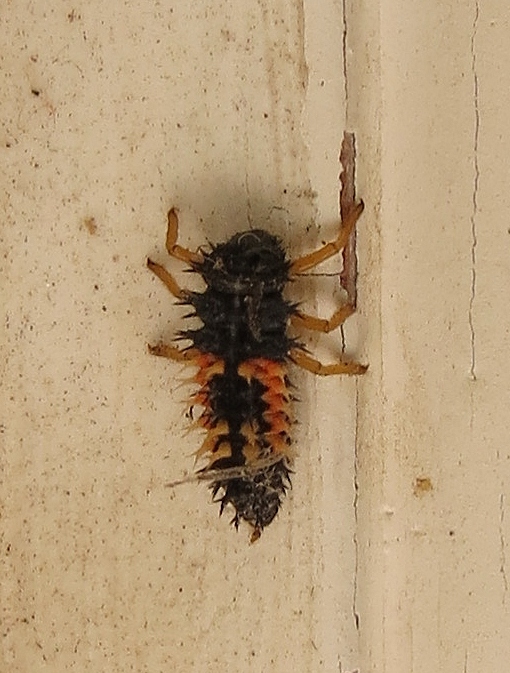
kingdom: Animalia
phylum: Arthropoda
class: Insecta
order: Coleoptera
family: Coccinellidae
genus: Harmonia
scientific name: Harmonia axyridis
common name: Harlequin ladybird
